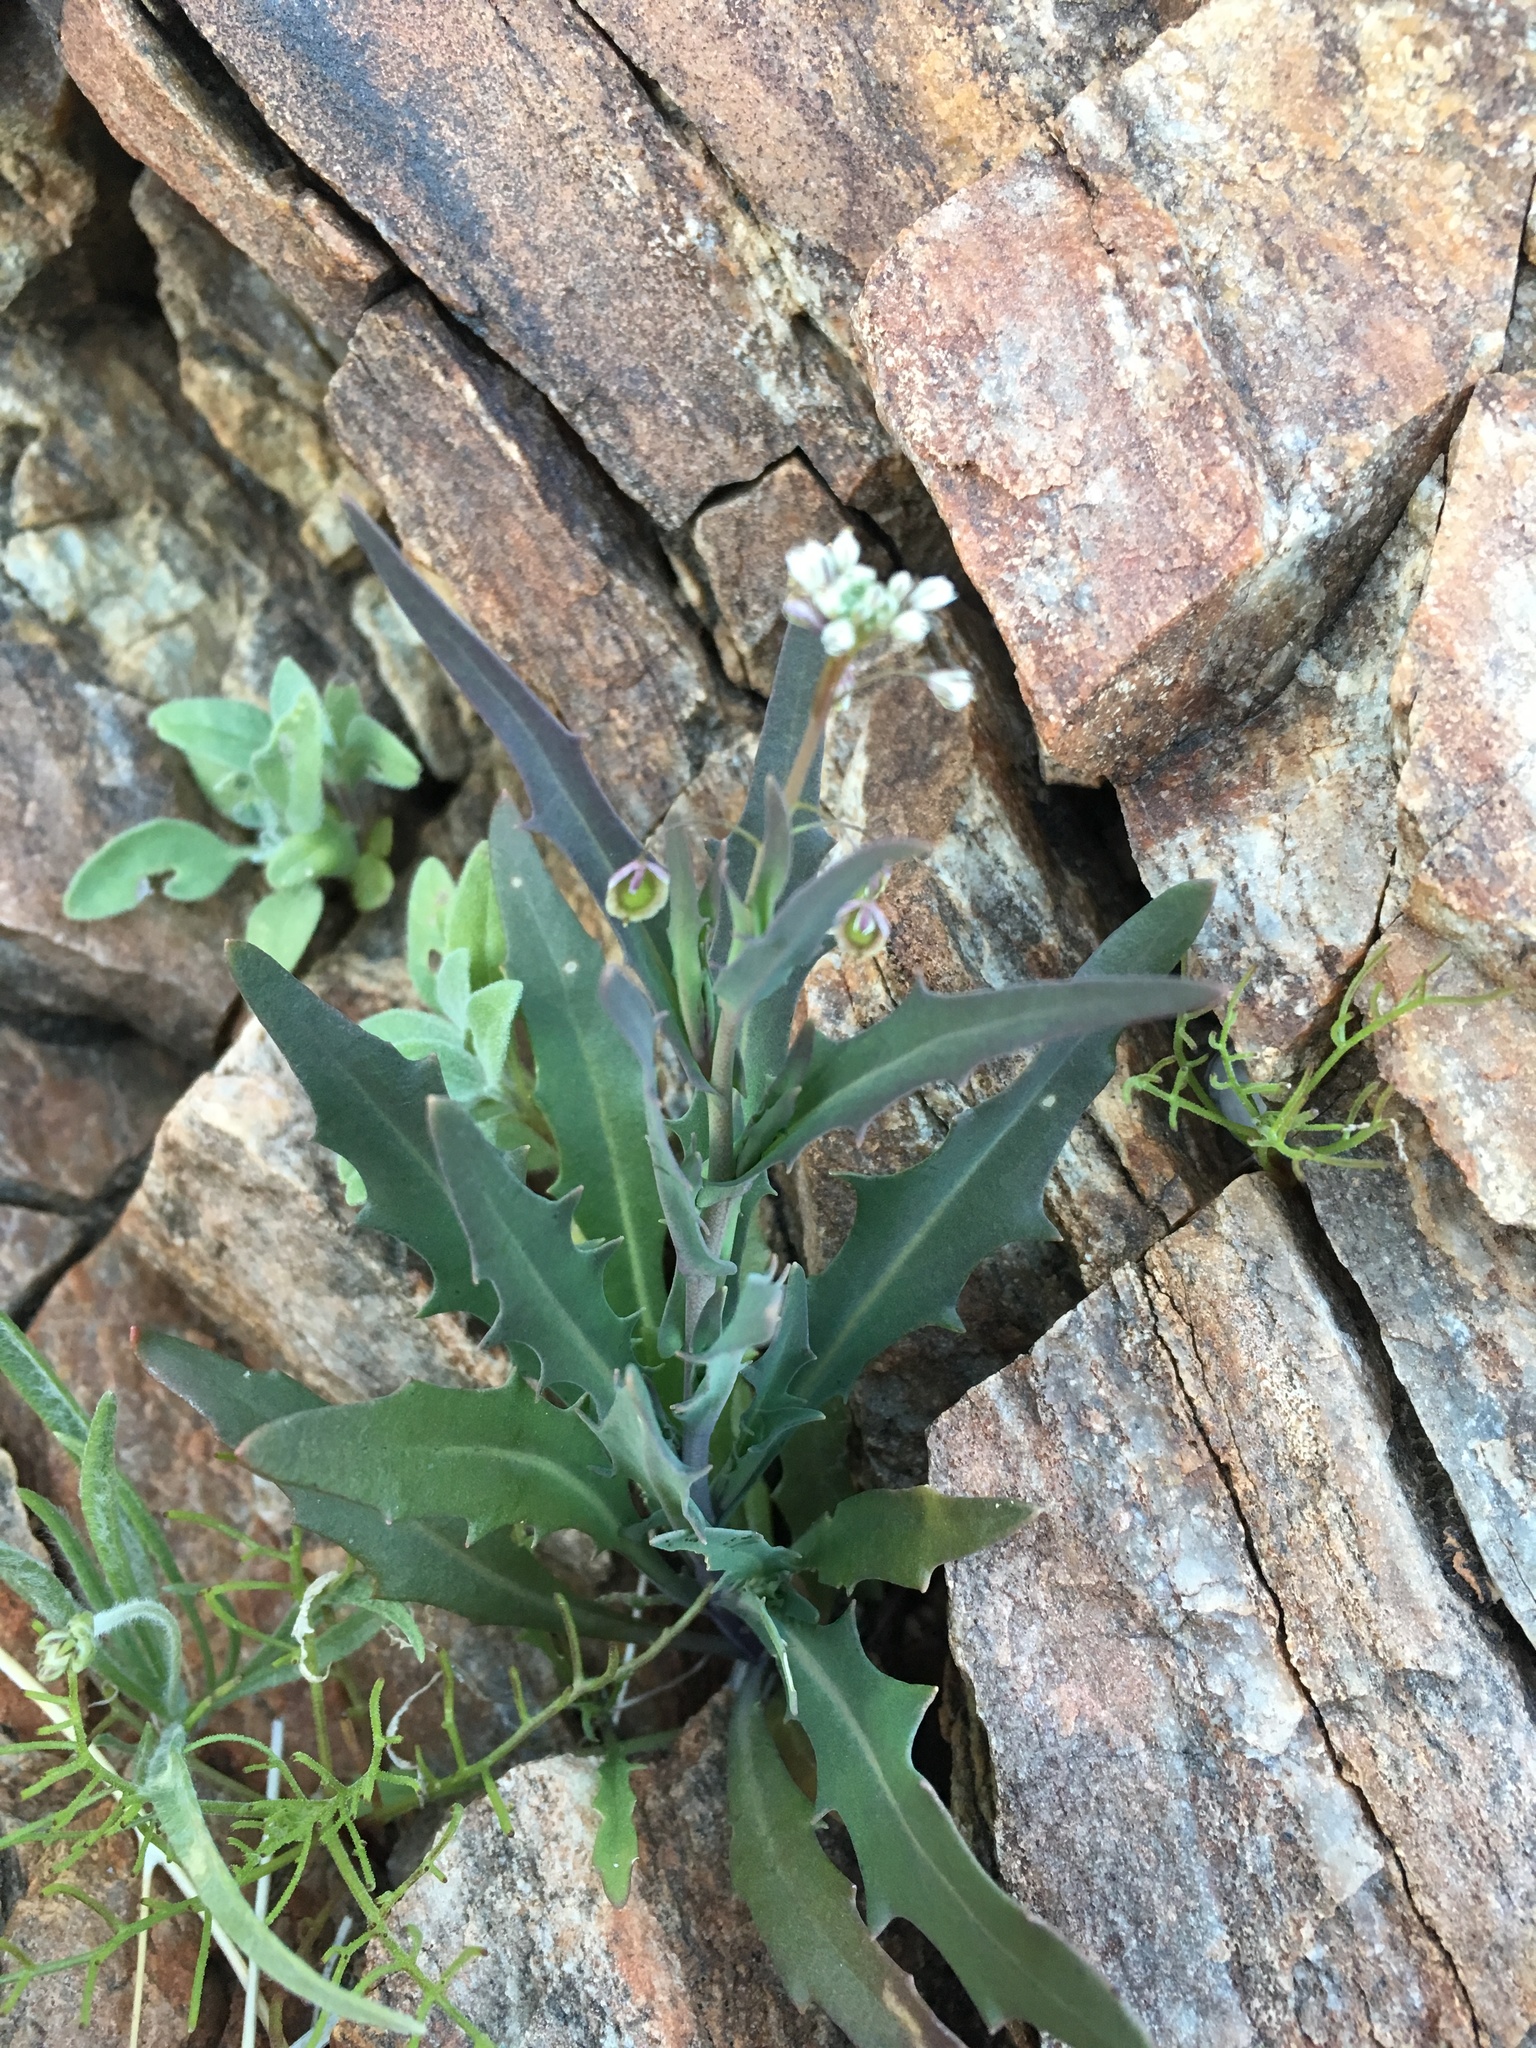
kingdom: Plantae
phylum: Tracheophyta
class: Magnoliopsida
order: Brassicales
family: Brassicaceae
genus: Thysanocarpus
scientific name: Thysanocarpus curvipes
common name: Sand fringepod
